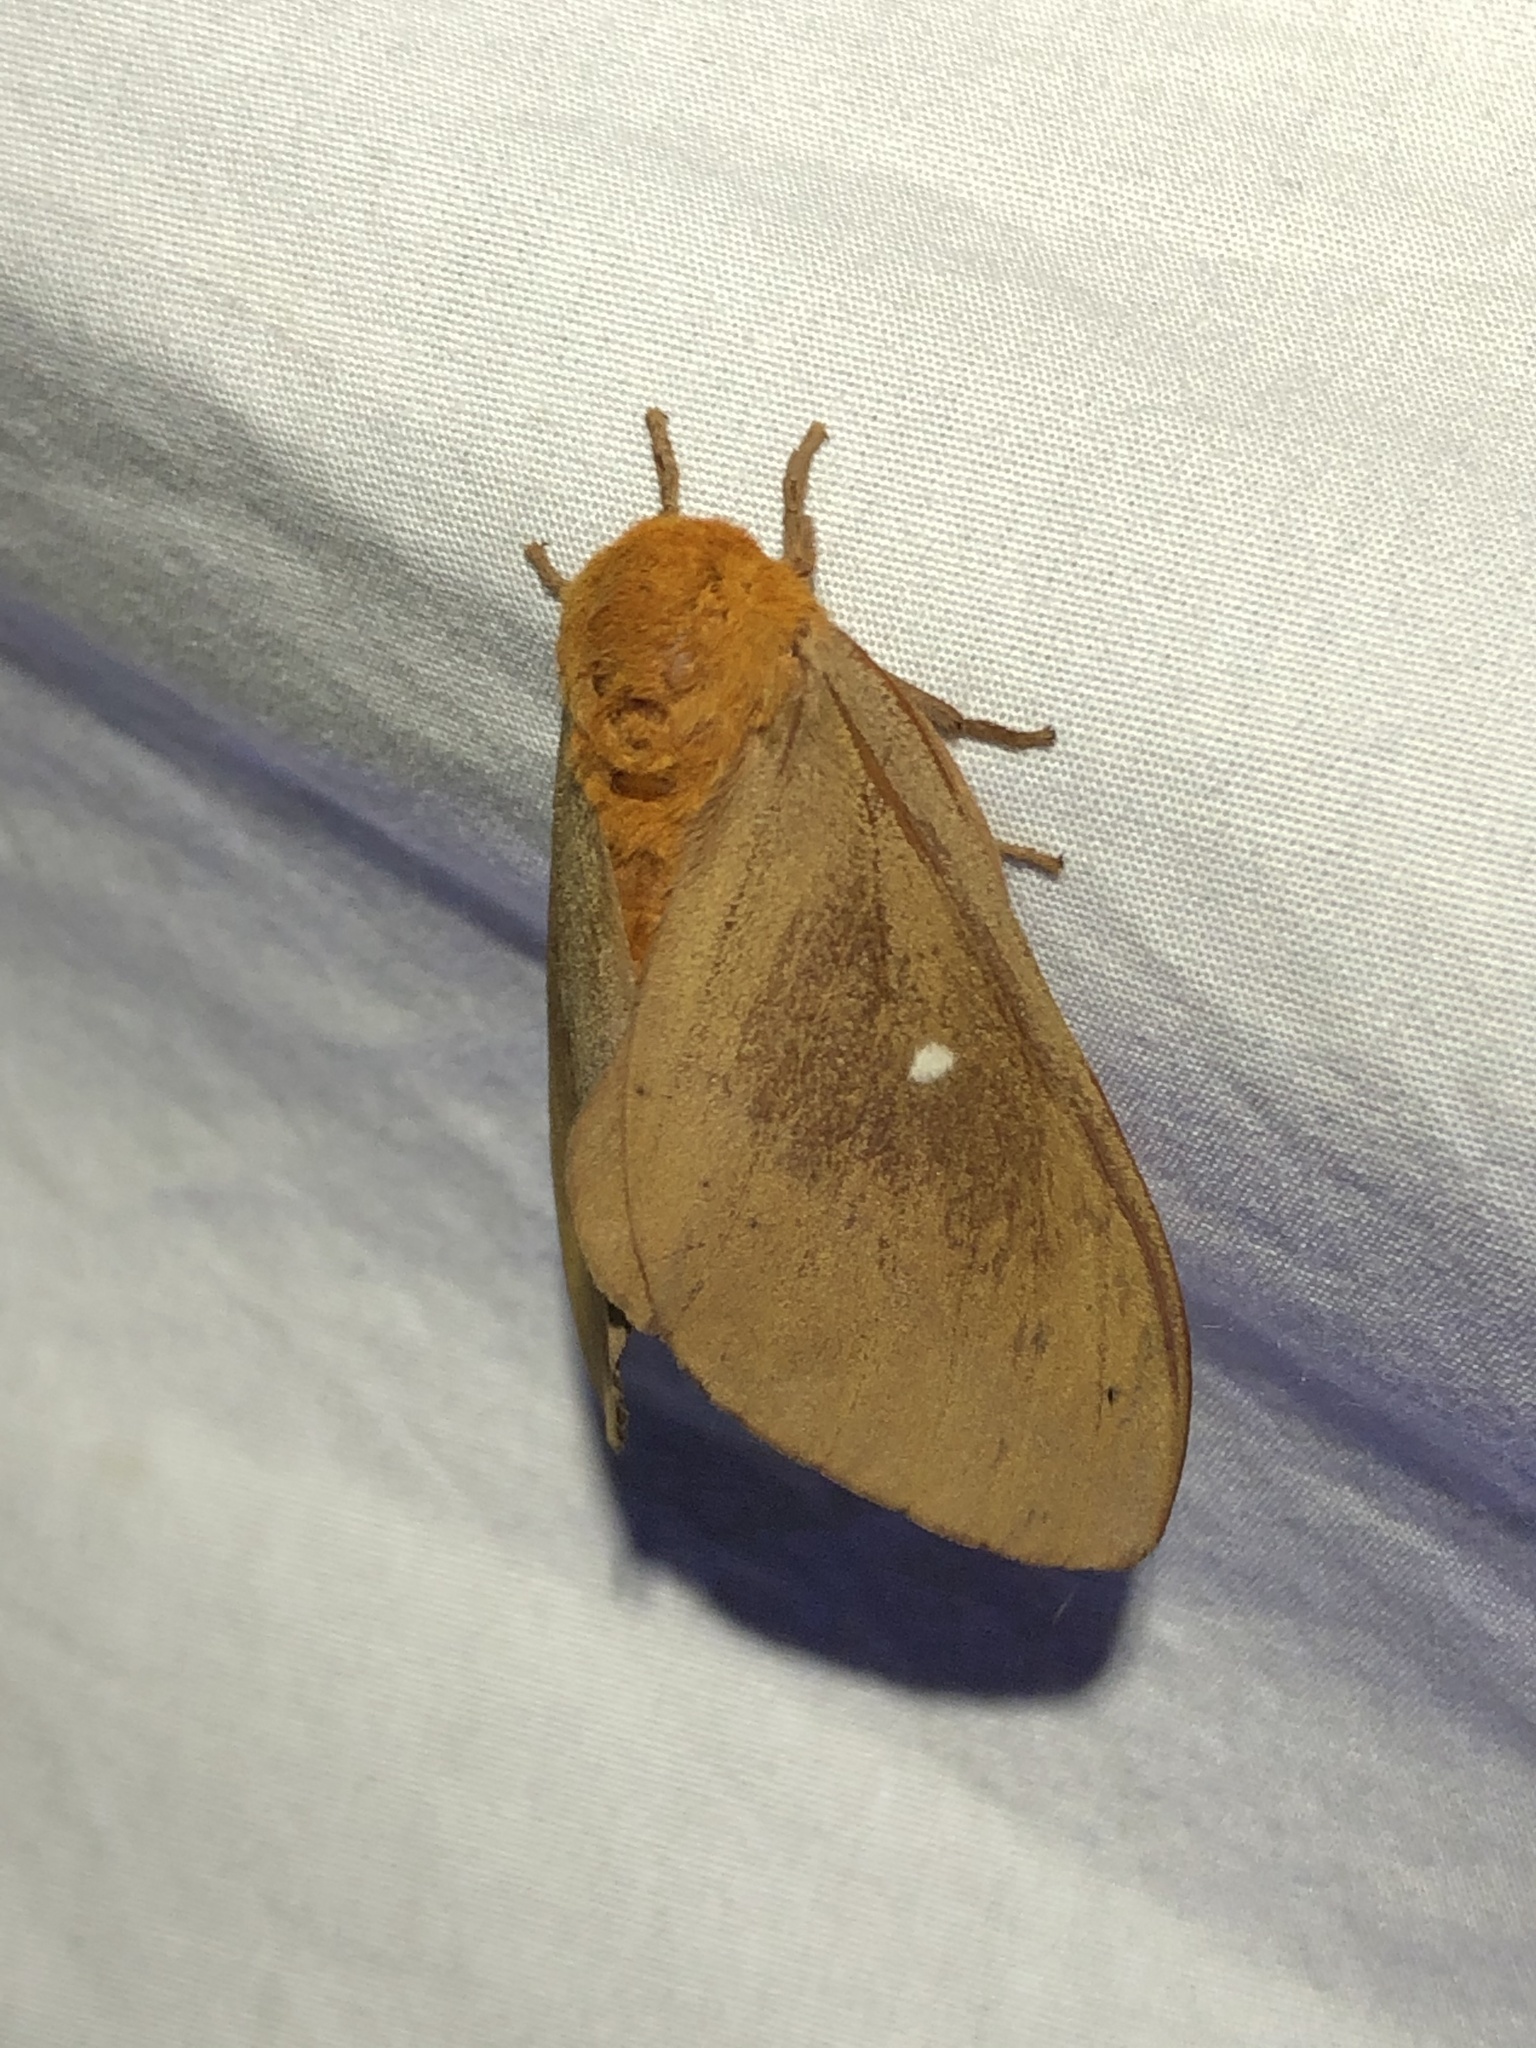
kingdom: Animalia
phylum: Arthropoda
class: Insecta
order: Lepidoptera
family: Saturniidae
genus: Anisota
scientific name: Anisota oslari
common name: Oslar's oakworm moth
